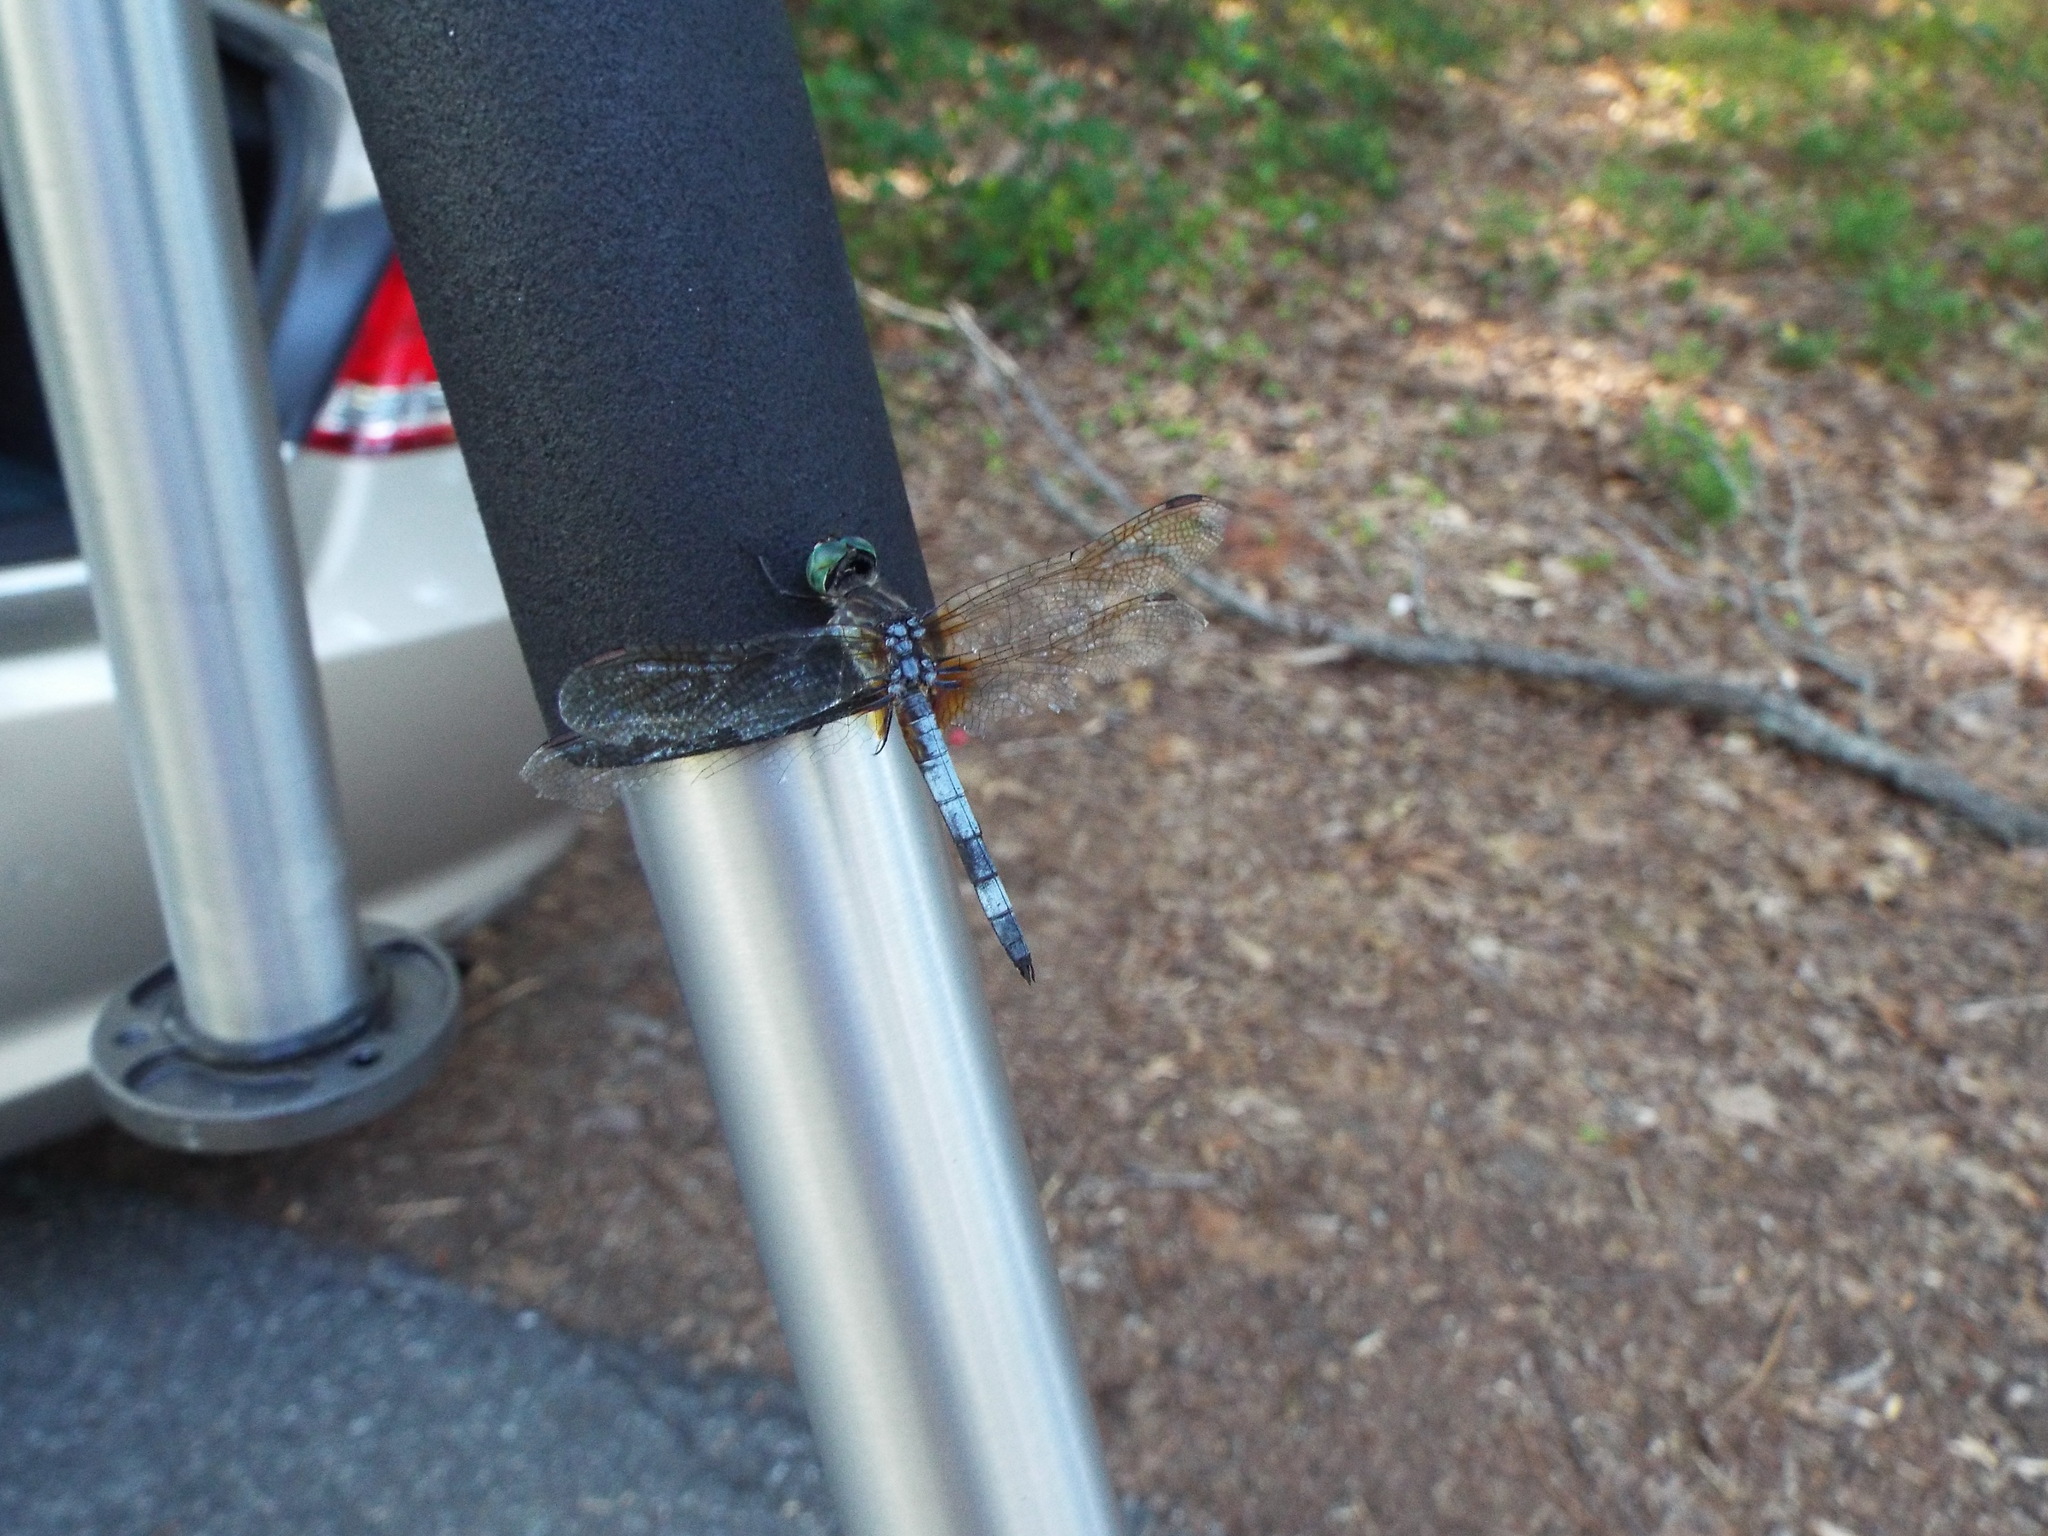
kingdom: Animalia
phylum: Arthropoda
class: Insecta
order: Odonata
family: Libellulidae
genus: Pachydiplax
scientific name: Pachydiplax longipennis
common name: Blue dasher
